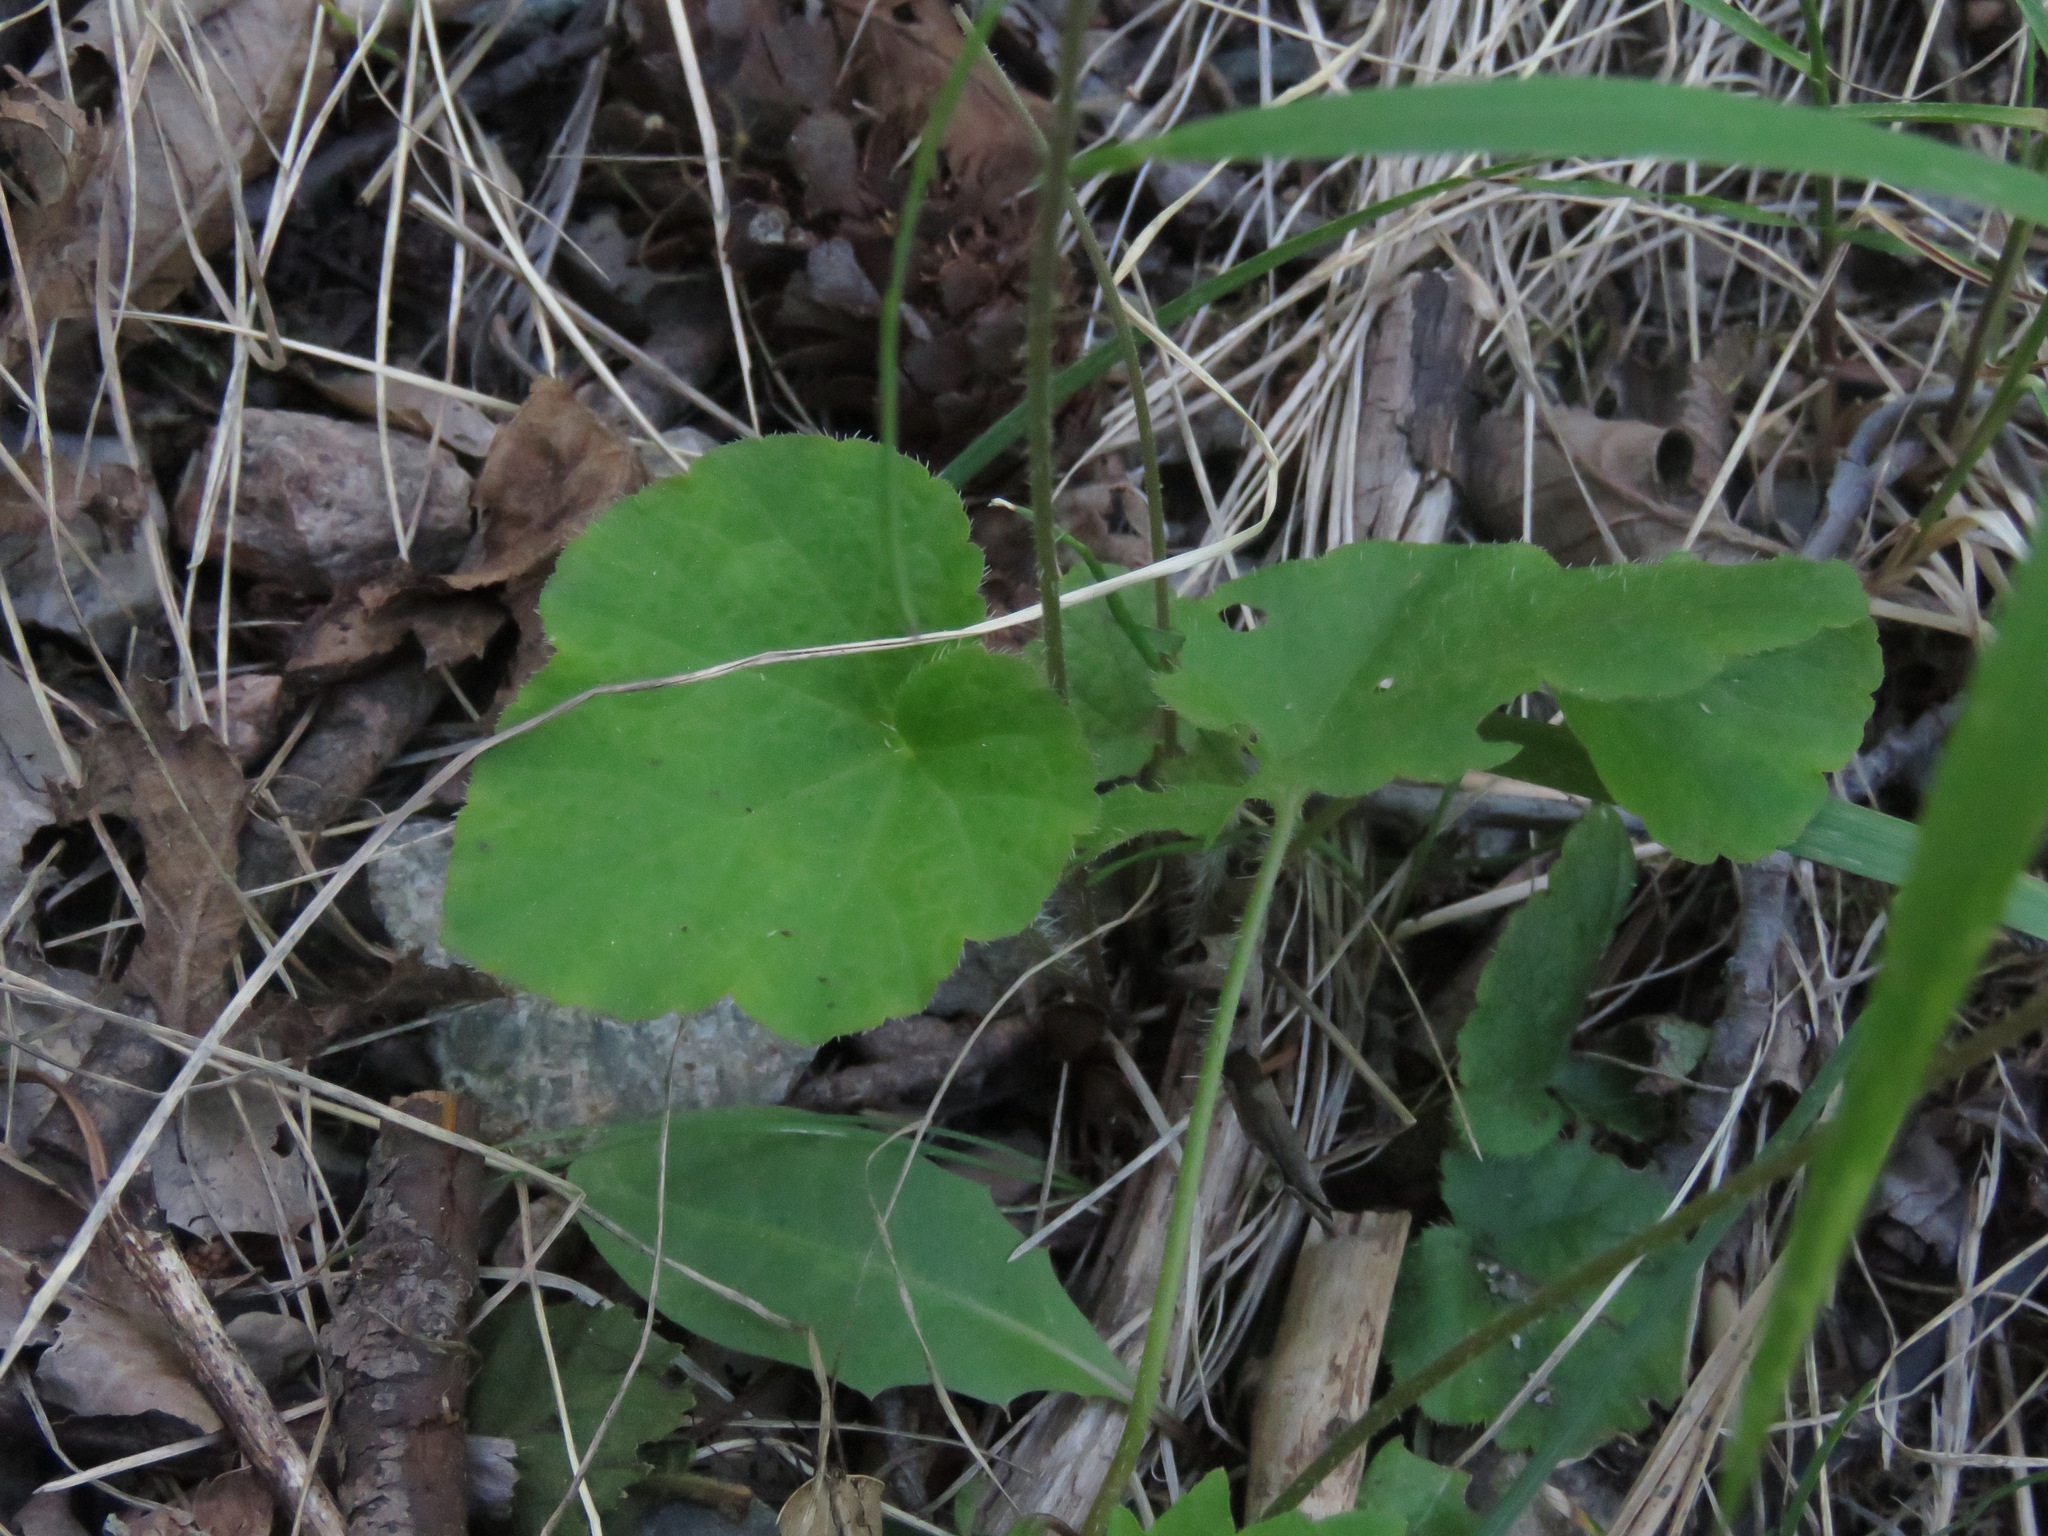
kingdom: Plantae
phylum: Tracheophyta
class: Magnoliopsida
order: Saxifragales
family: Saxifragaceae
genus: Ozomelis
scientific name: Ozomelis trifida
